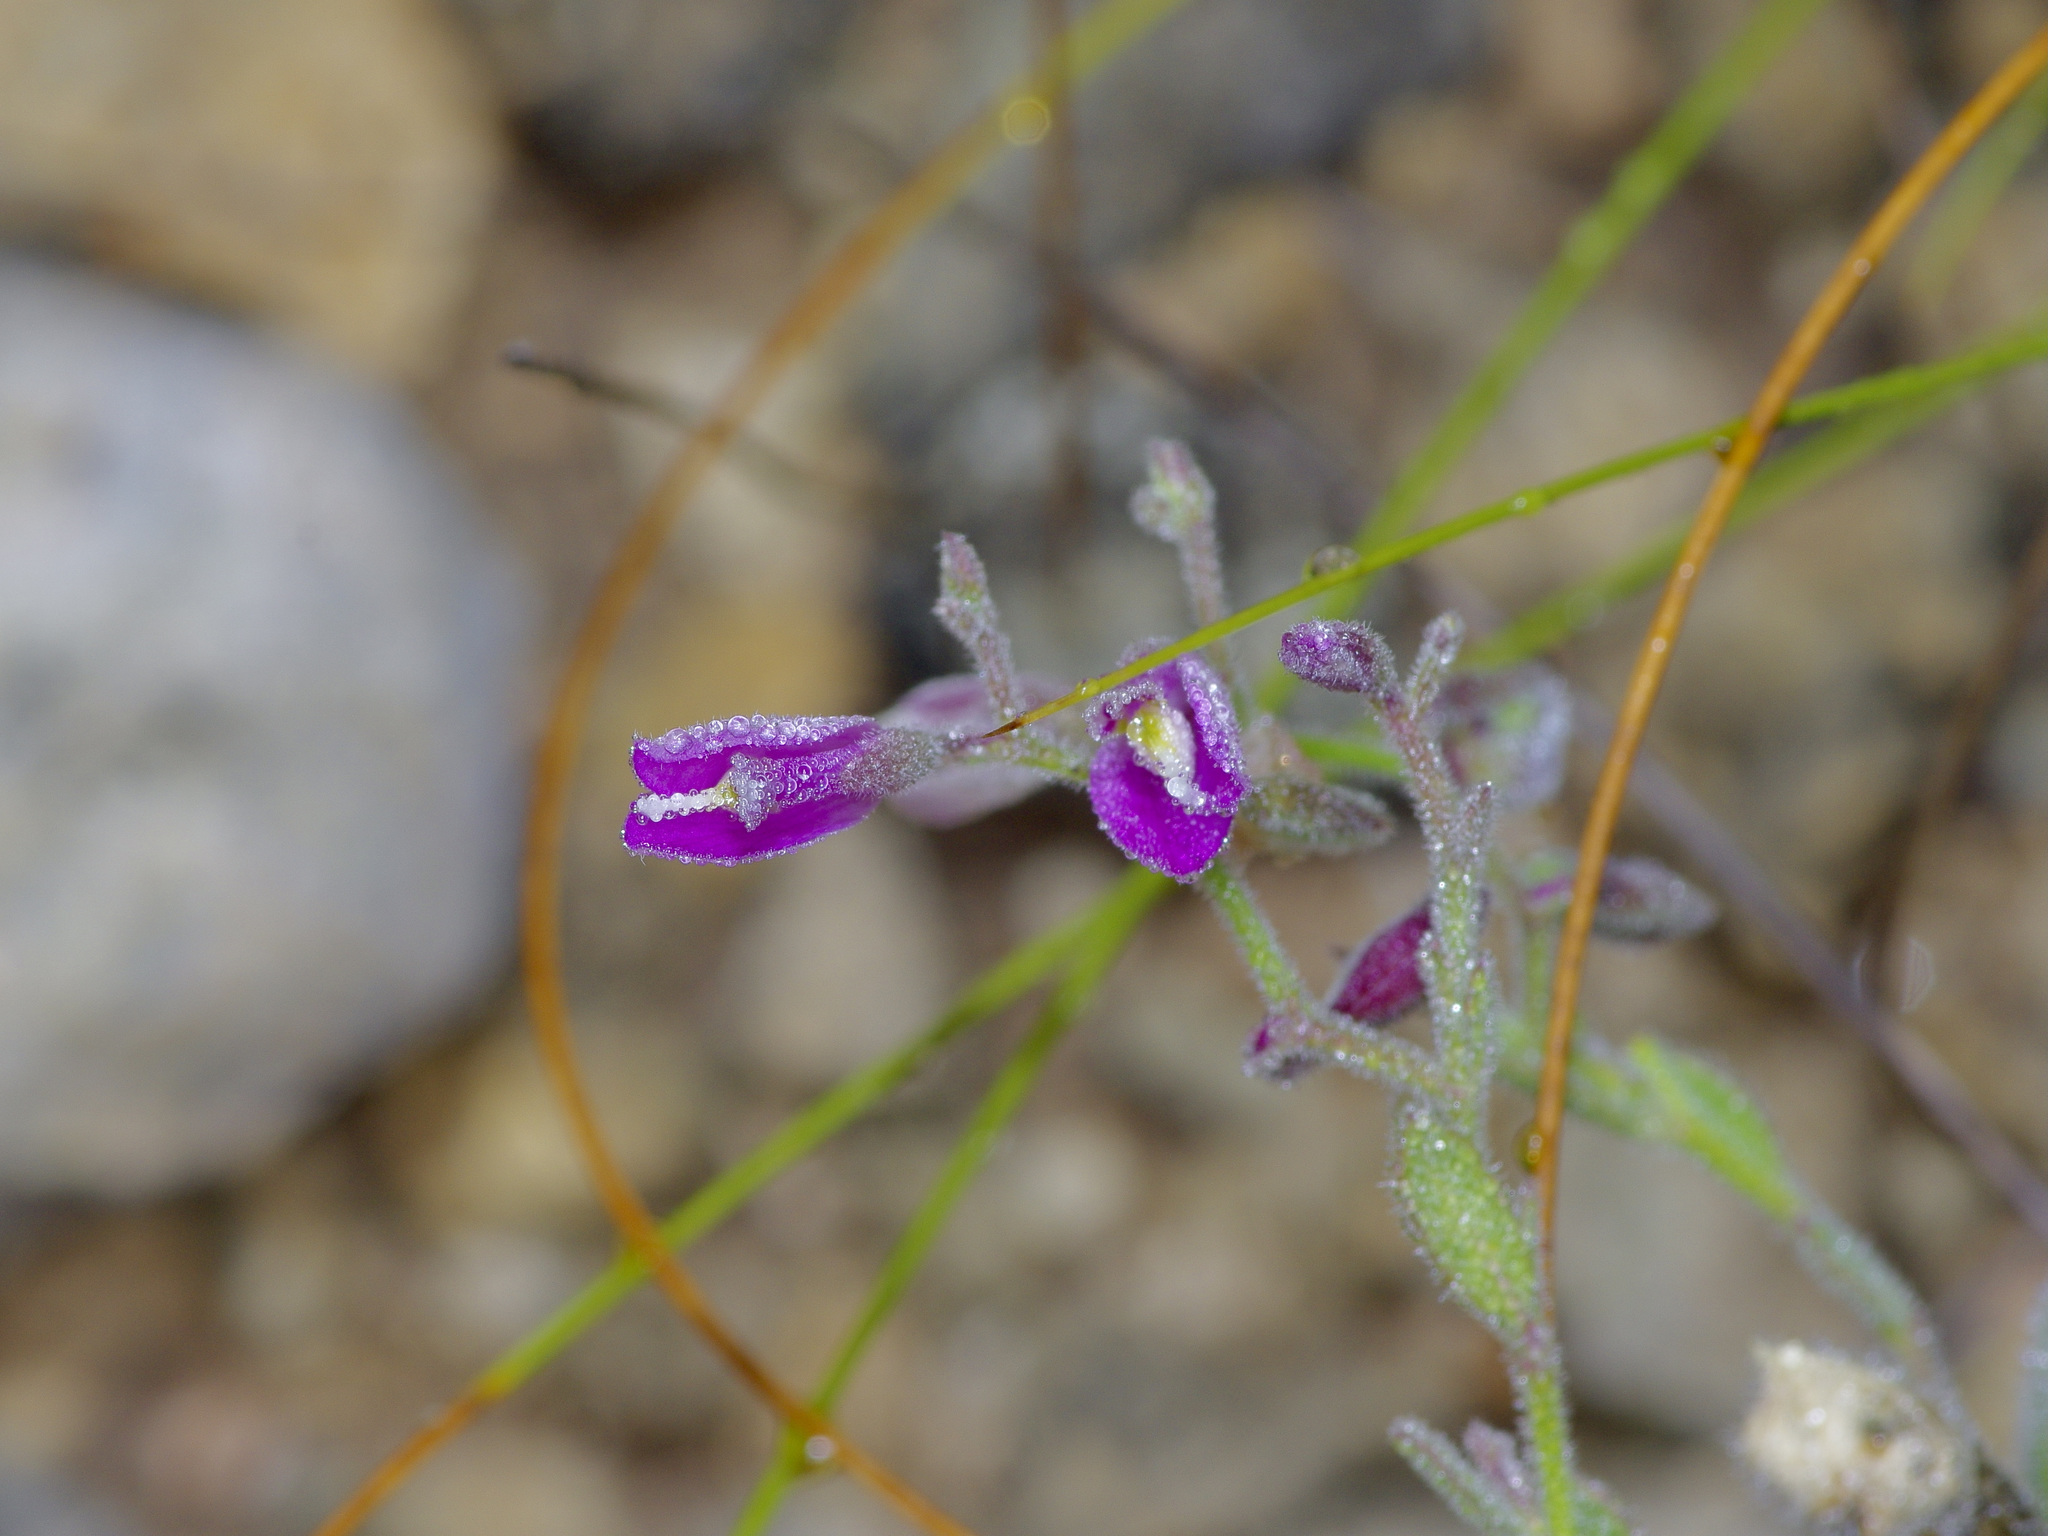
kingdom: Plantae
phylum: Tracheophyta
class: Magnoliopsida
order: Fabales
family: Polygalaceae
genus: Rhinotropis
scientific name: Rhinotropis lindheimeri
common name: Shrubby milkwort
